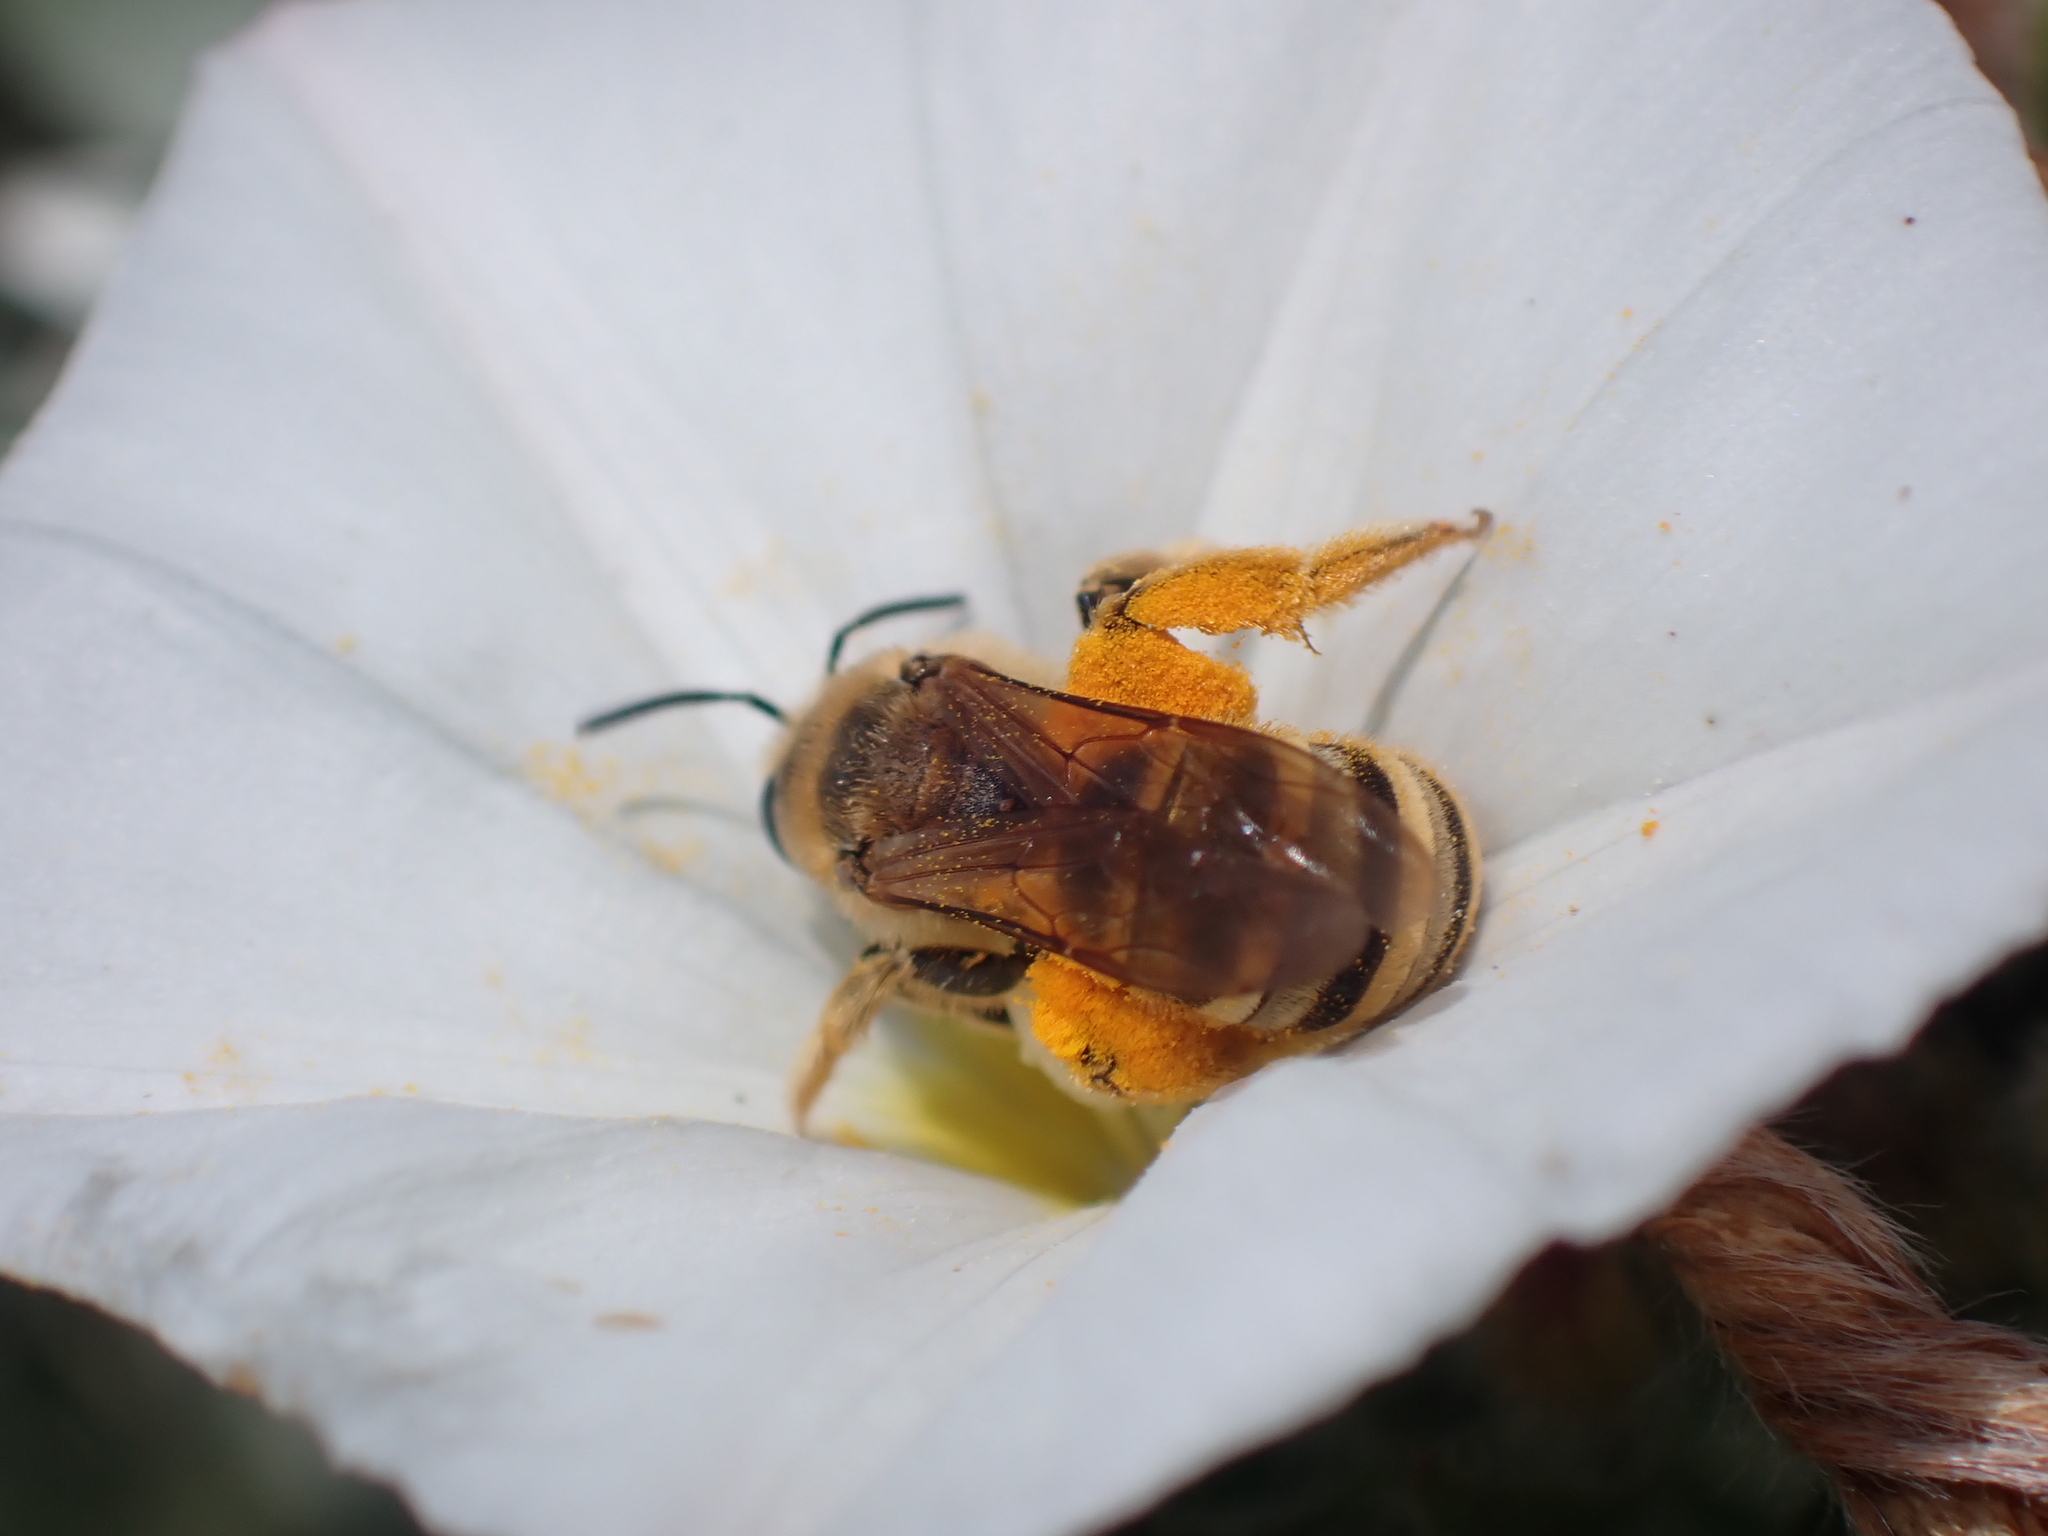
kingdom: Animalia
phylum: Arthropoda
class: Insecta
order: Hymenoptera
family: Halictidae
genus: Halictus
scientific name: Halictus scabiosae
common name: Great banded furrow bee
